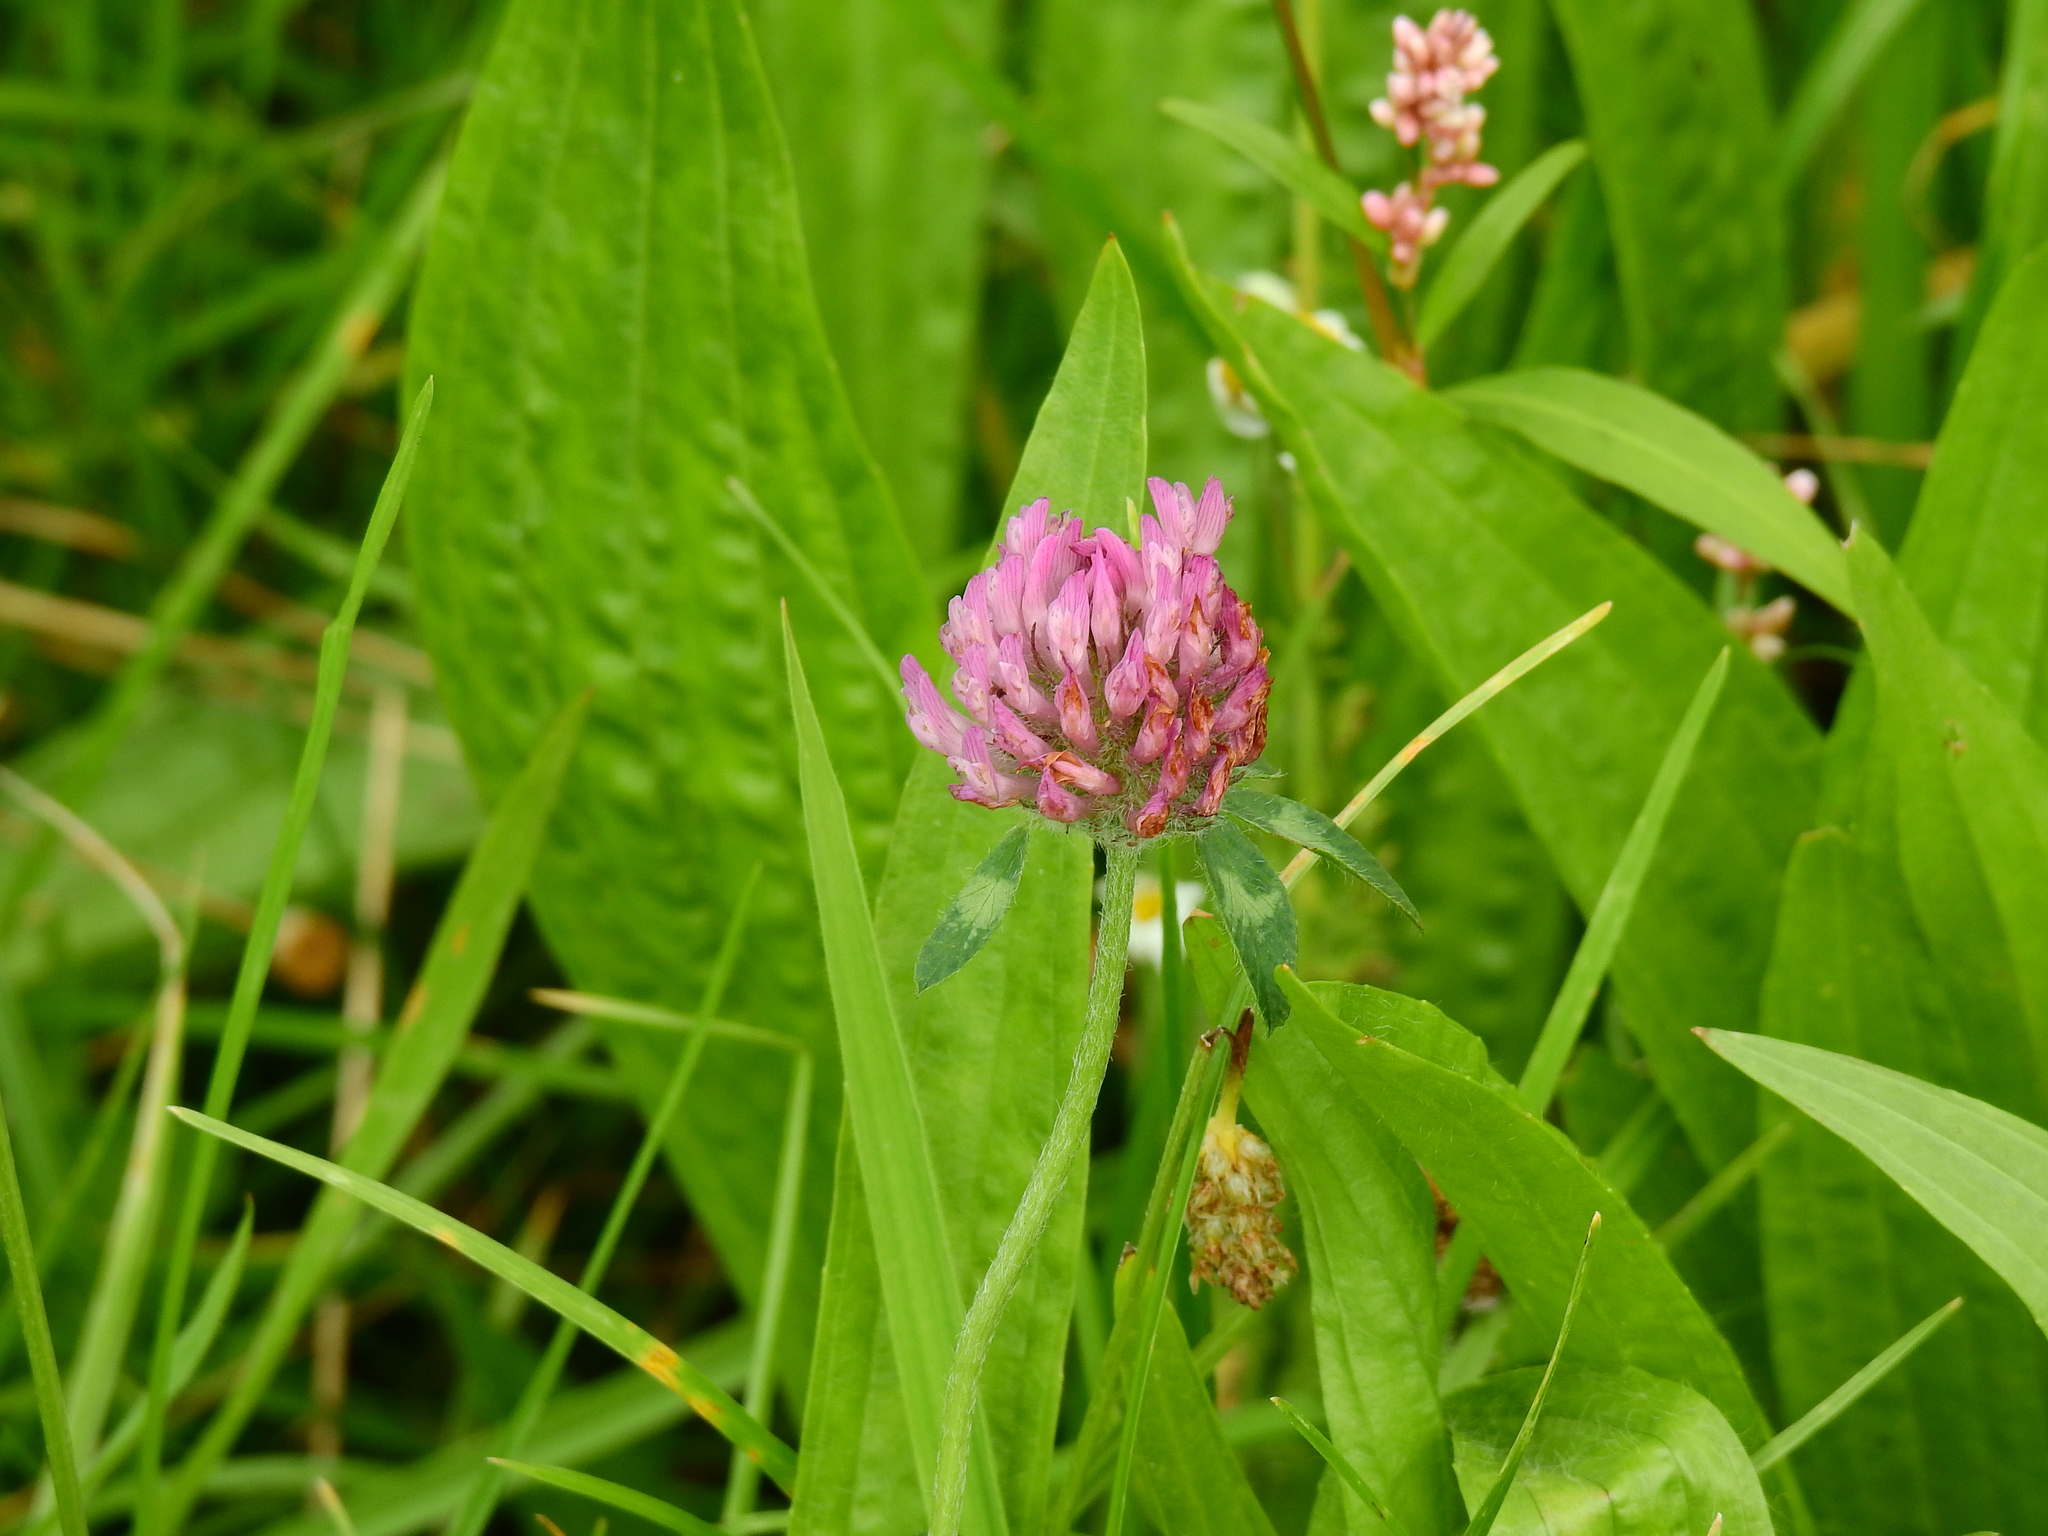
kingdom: Plantae
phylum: Tracheophyta
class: Magnoliopsida
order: Fabales
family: Fabaceae
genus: Trifolium
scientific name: Trifolium pratense
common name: Red clover
